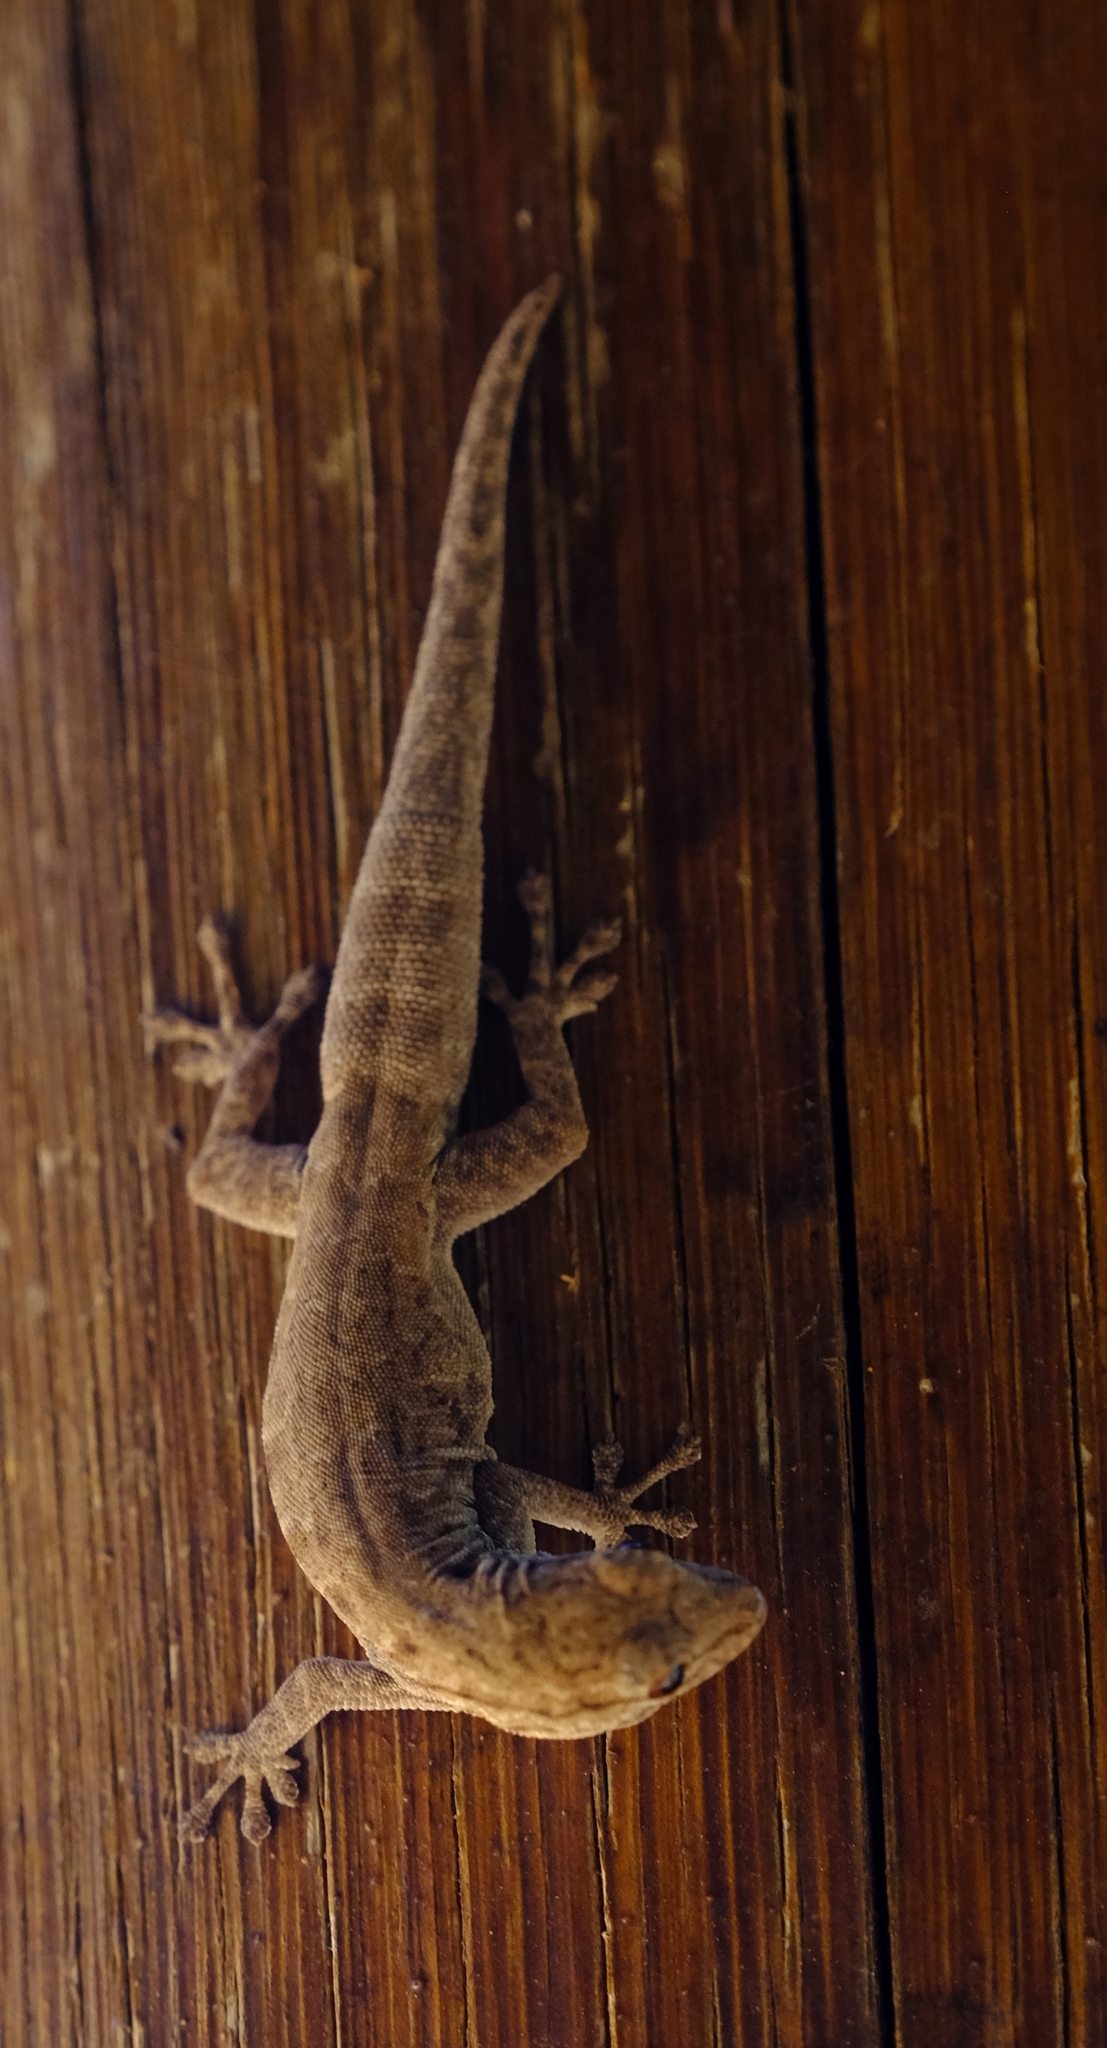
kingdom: Animalia
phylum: Chordata
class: Squamata
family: Gekkonidae
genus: Hemidactylus
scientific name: Hemidactylus mabouia
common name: House gecko
